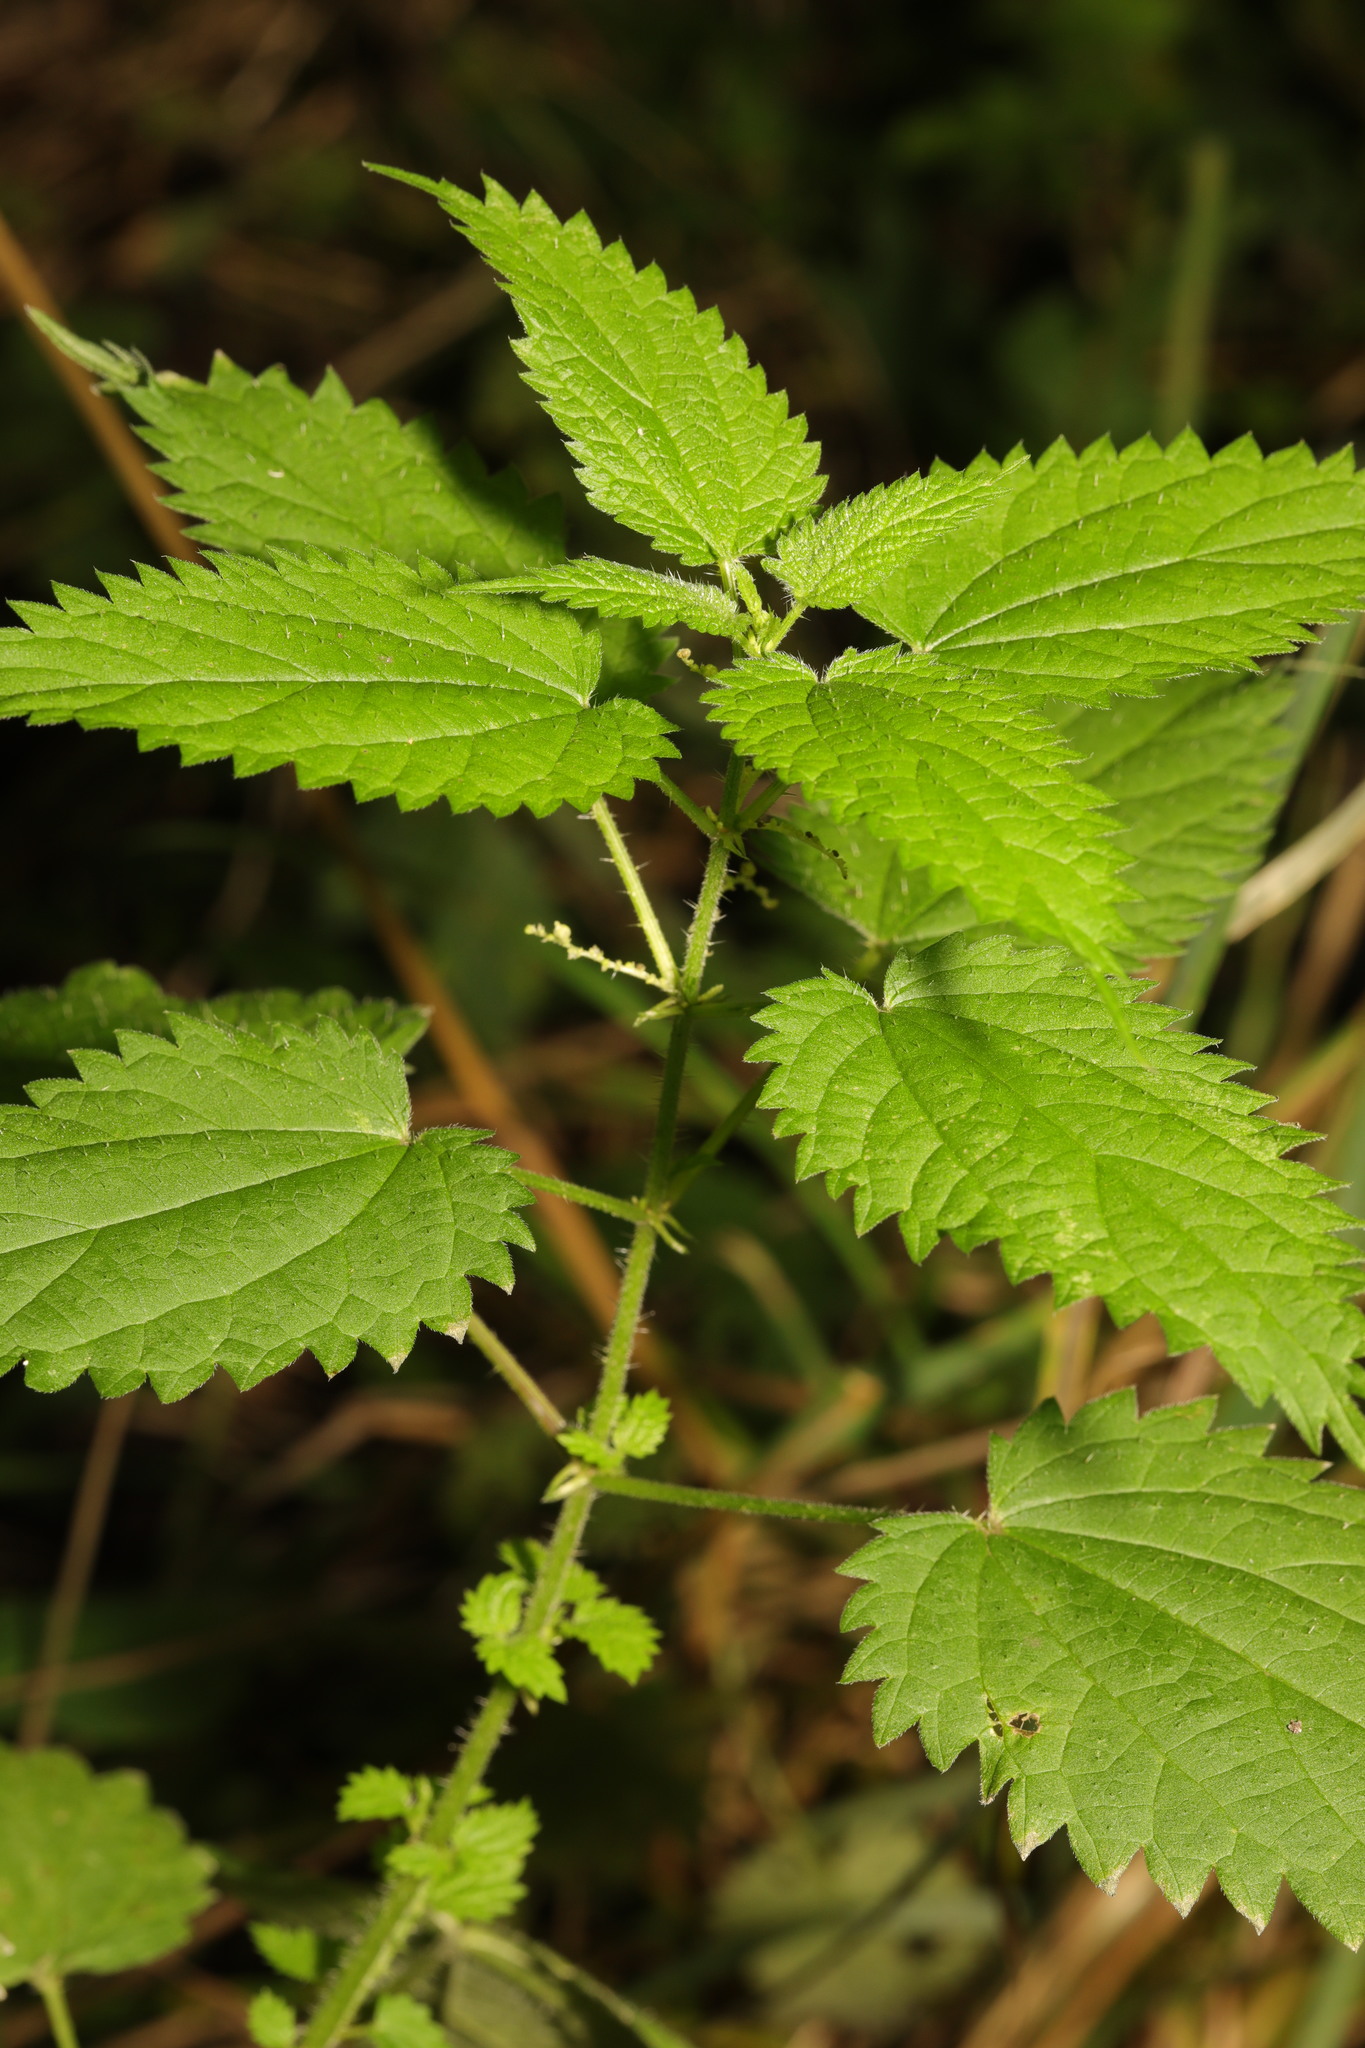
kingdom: Plantae
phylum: Tracheophyta
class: Magnoliopsida
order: Rosales
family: Urticaceae
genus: Urtica
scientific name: Urtica dioica
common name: Common nettle
